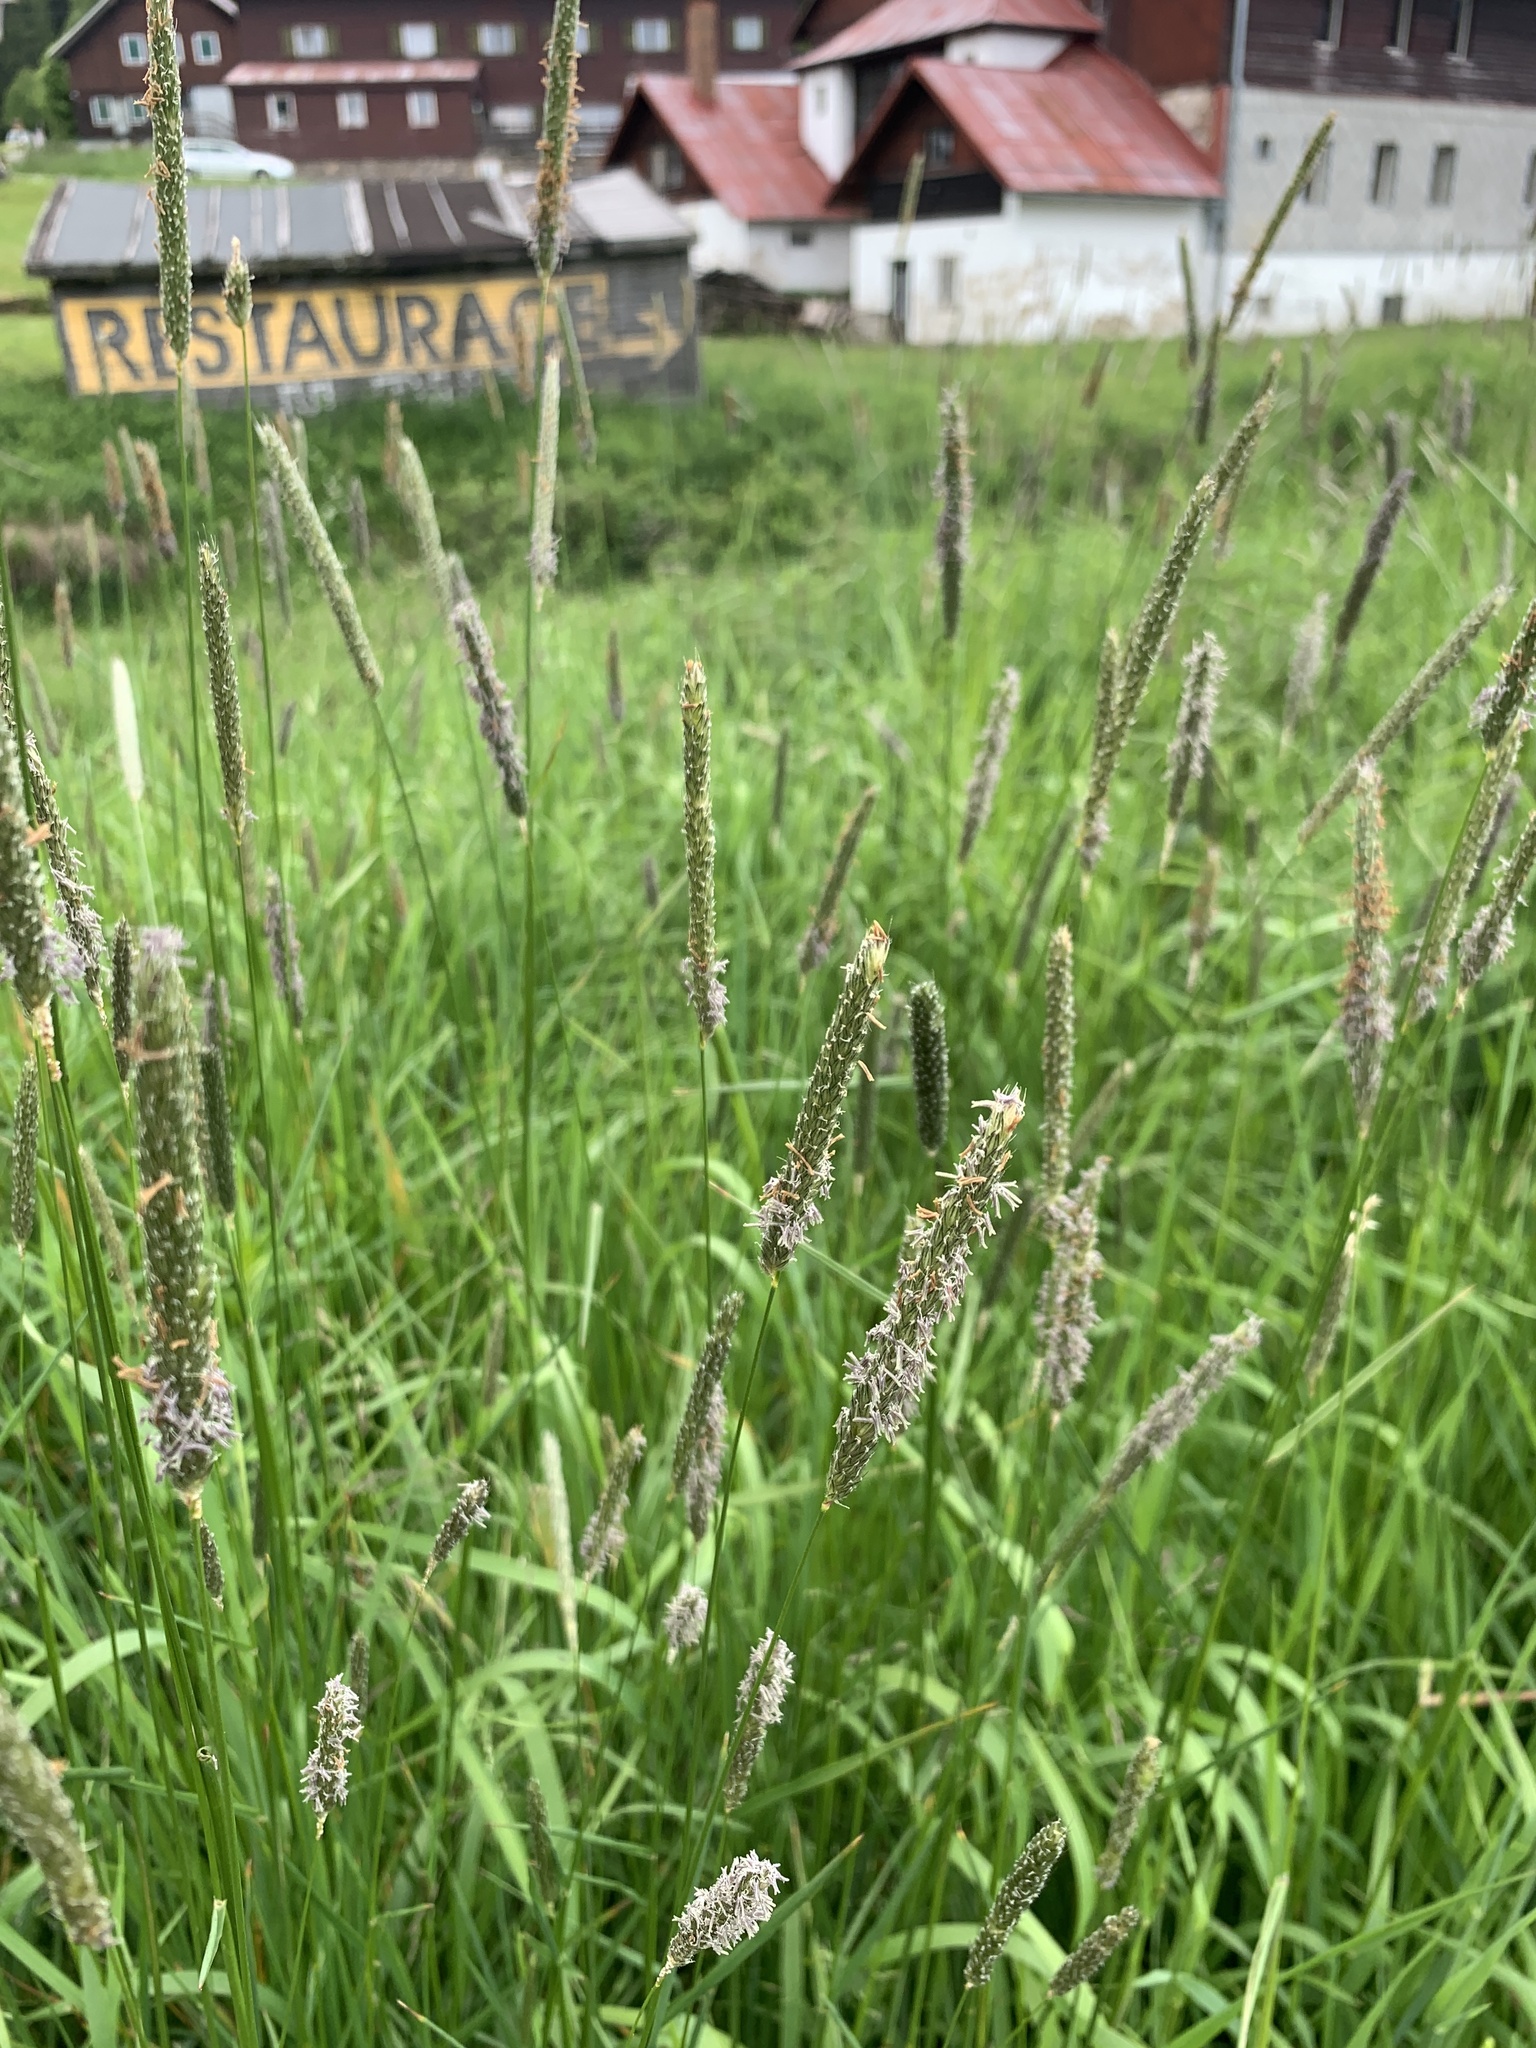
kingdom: Plantae
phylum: Tracheophyta
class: Liliopsida
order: Poales
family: Poaceae
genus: Alopecurus
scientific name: Alopecurus pratensis
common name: Meadow foxtail
